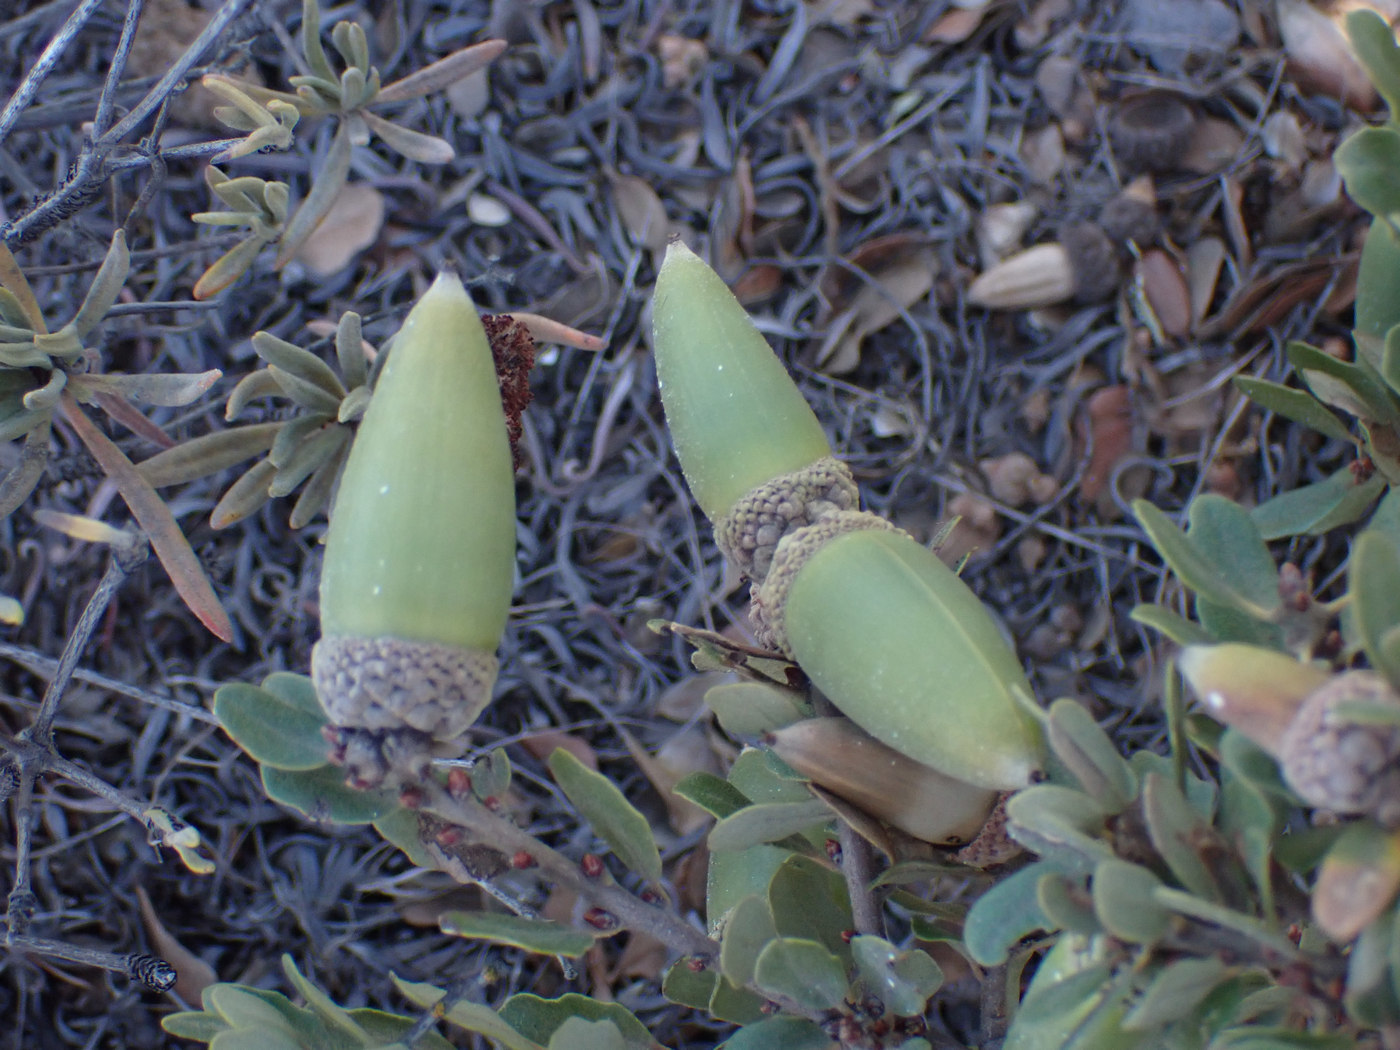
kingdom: Plantae
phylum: Tracheophyta
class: Magnoliopsida
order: Fagales
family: Fagaceae
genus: Quercus
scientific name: Quercus pacifica
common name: Channel island scrub oak
